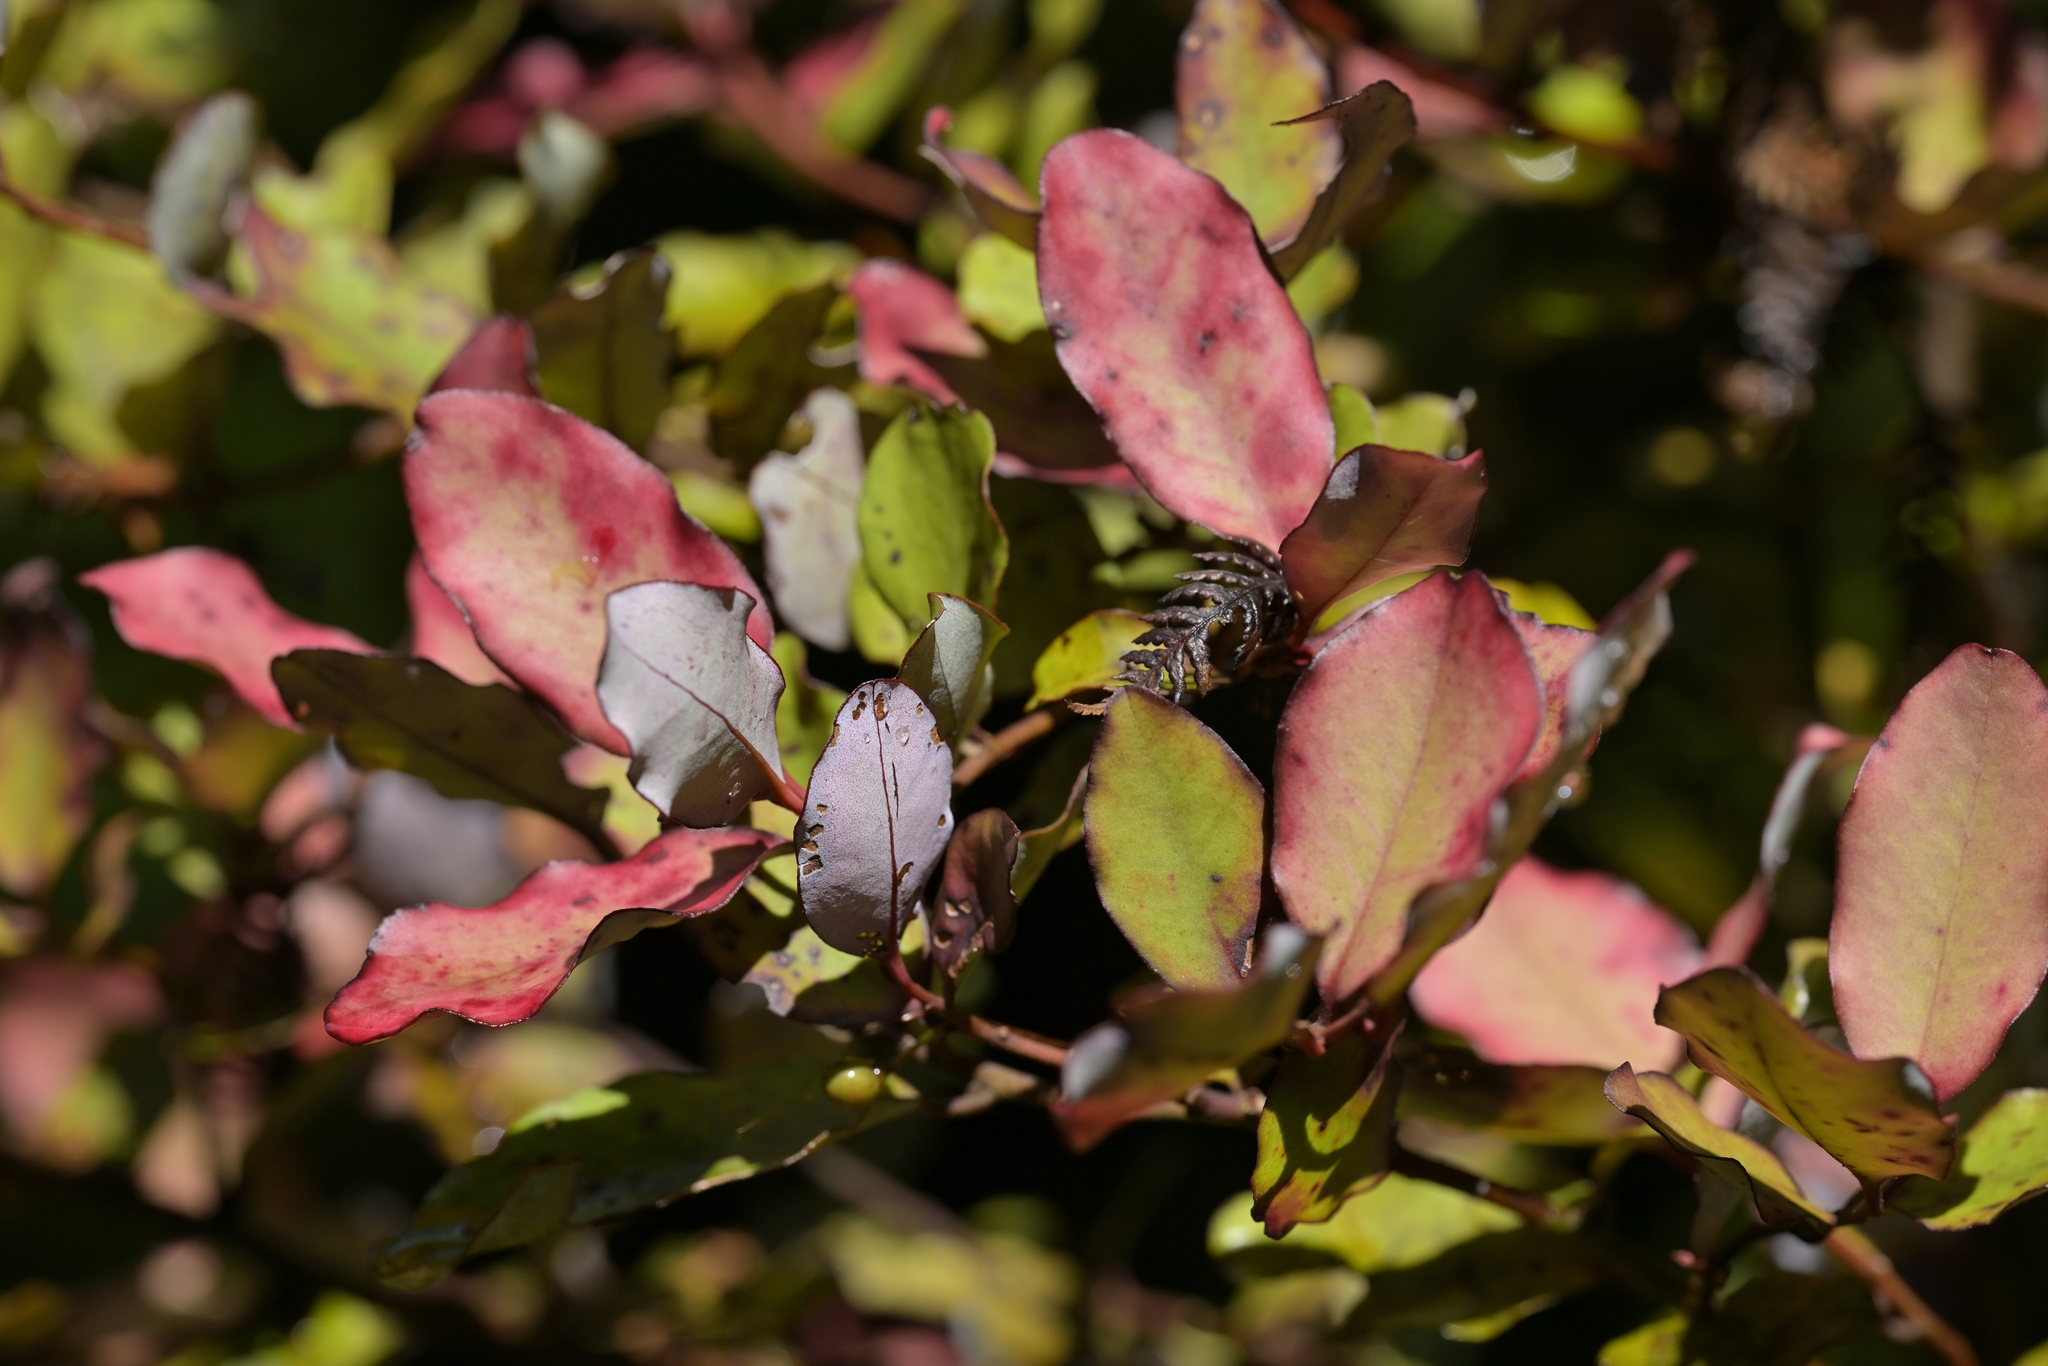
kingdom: Plantae
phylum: Tracheophyta
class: Magnoliopsida
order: Canellales
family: Winteraceae
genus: Pseudowintera
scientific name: Pseudowintera colorata
